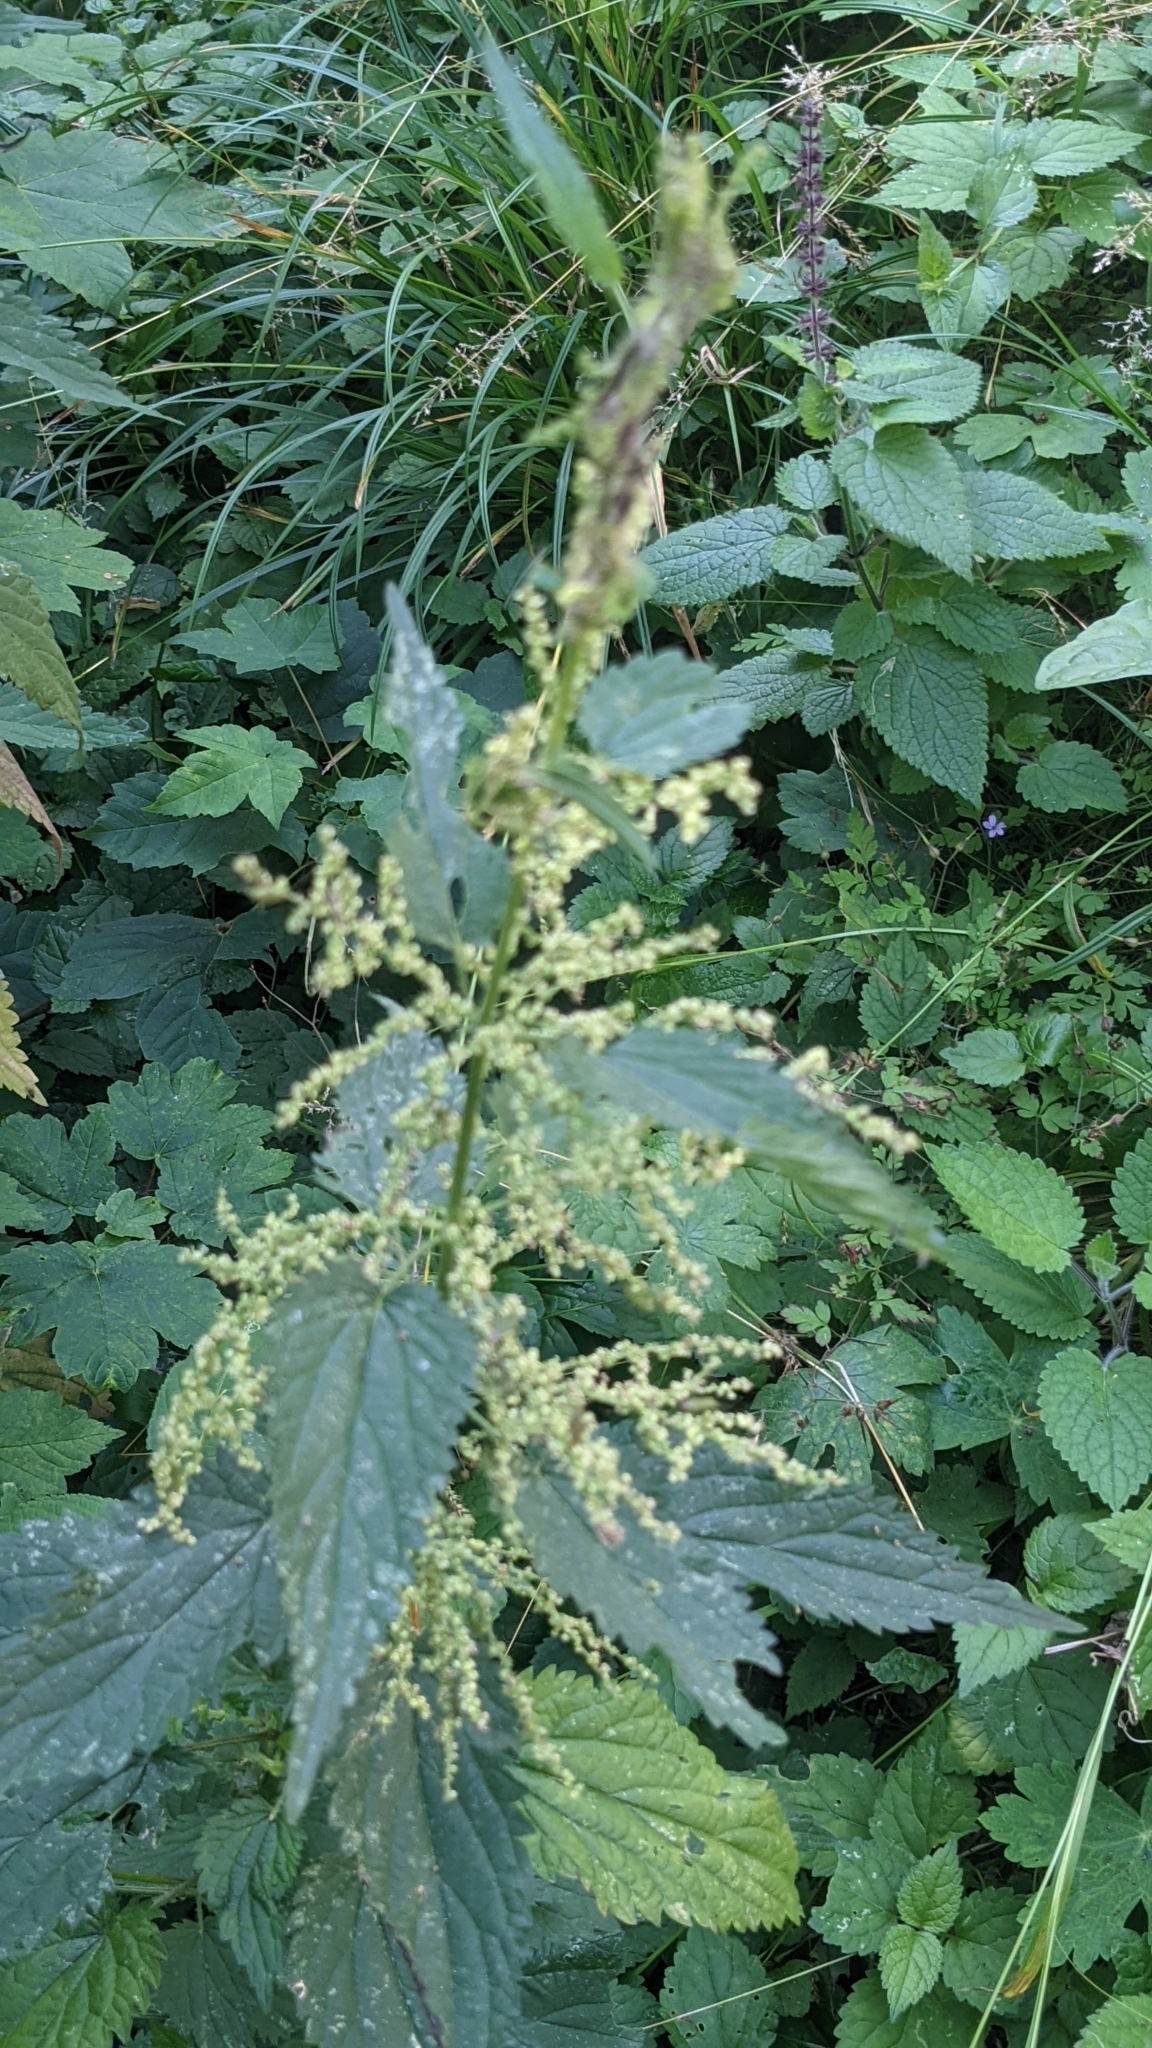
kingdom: Plantae
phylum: Tracheophyta
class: Magnoliopsida
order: Rosales
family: Urticaceae
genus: Urtica
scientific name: Urtica dioica
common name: Common nettle
